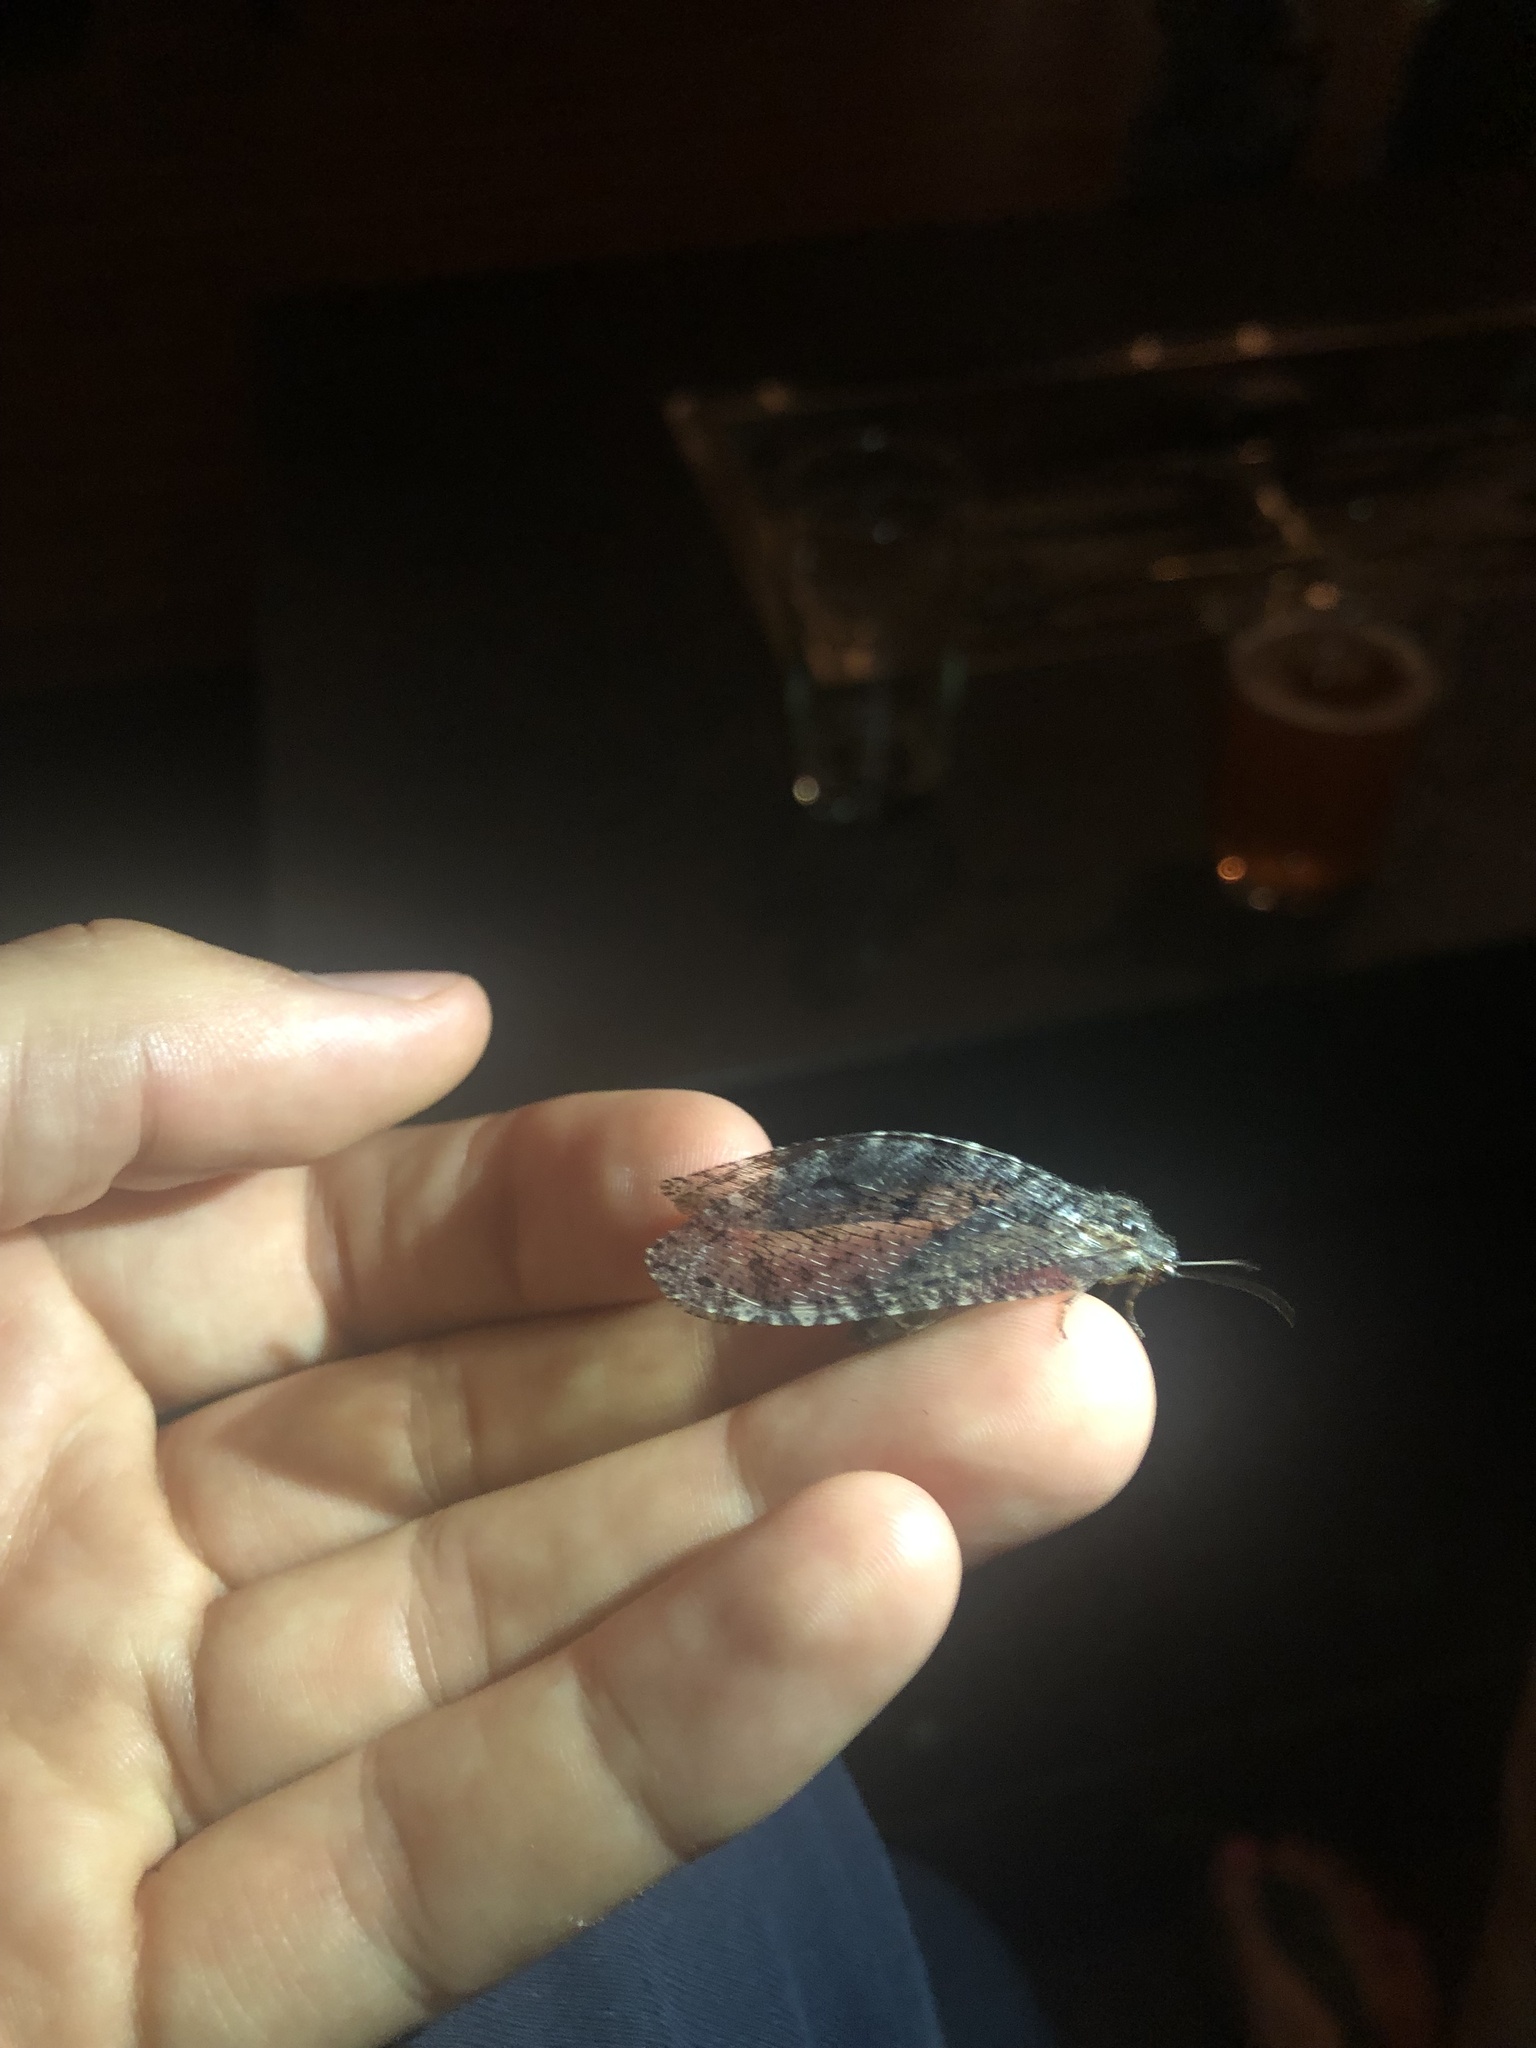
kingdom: Animalia
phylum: Arthropoda
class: Insecta
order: Neuroptera
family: Ithonidae
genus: Polystoechotes
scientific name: Polystoechotes punctata
